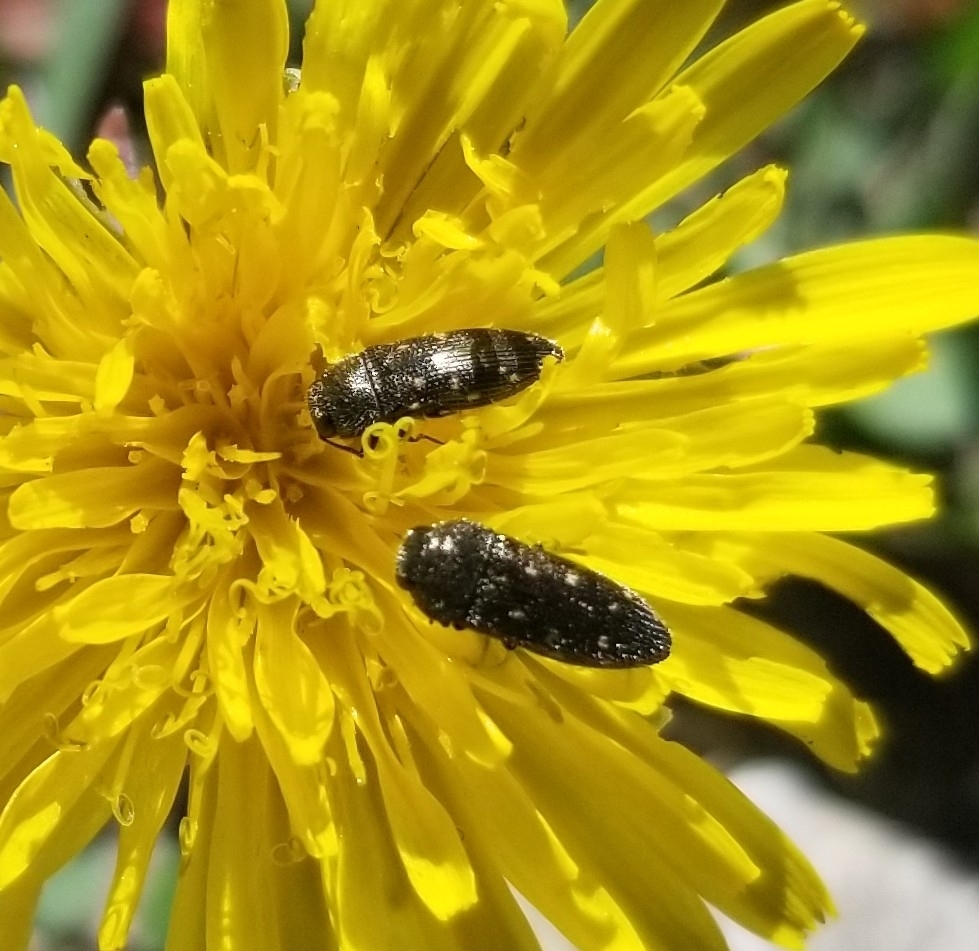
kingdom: Animalia
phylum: Arthropoda
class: Insecta
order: Coleoptera
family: Buprestidae
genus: Acmaeodera
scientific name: Acmaeodera tubulus
